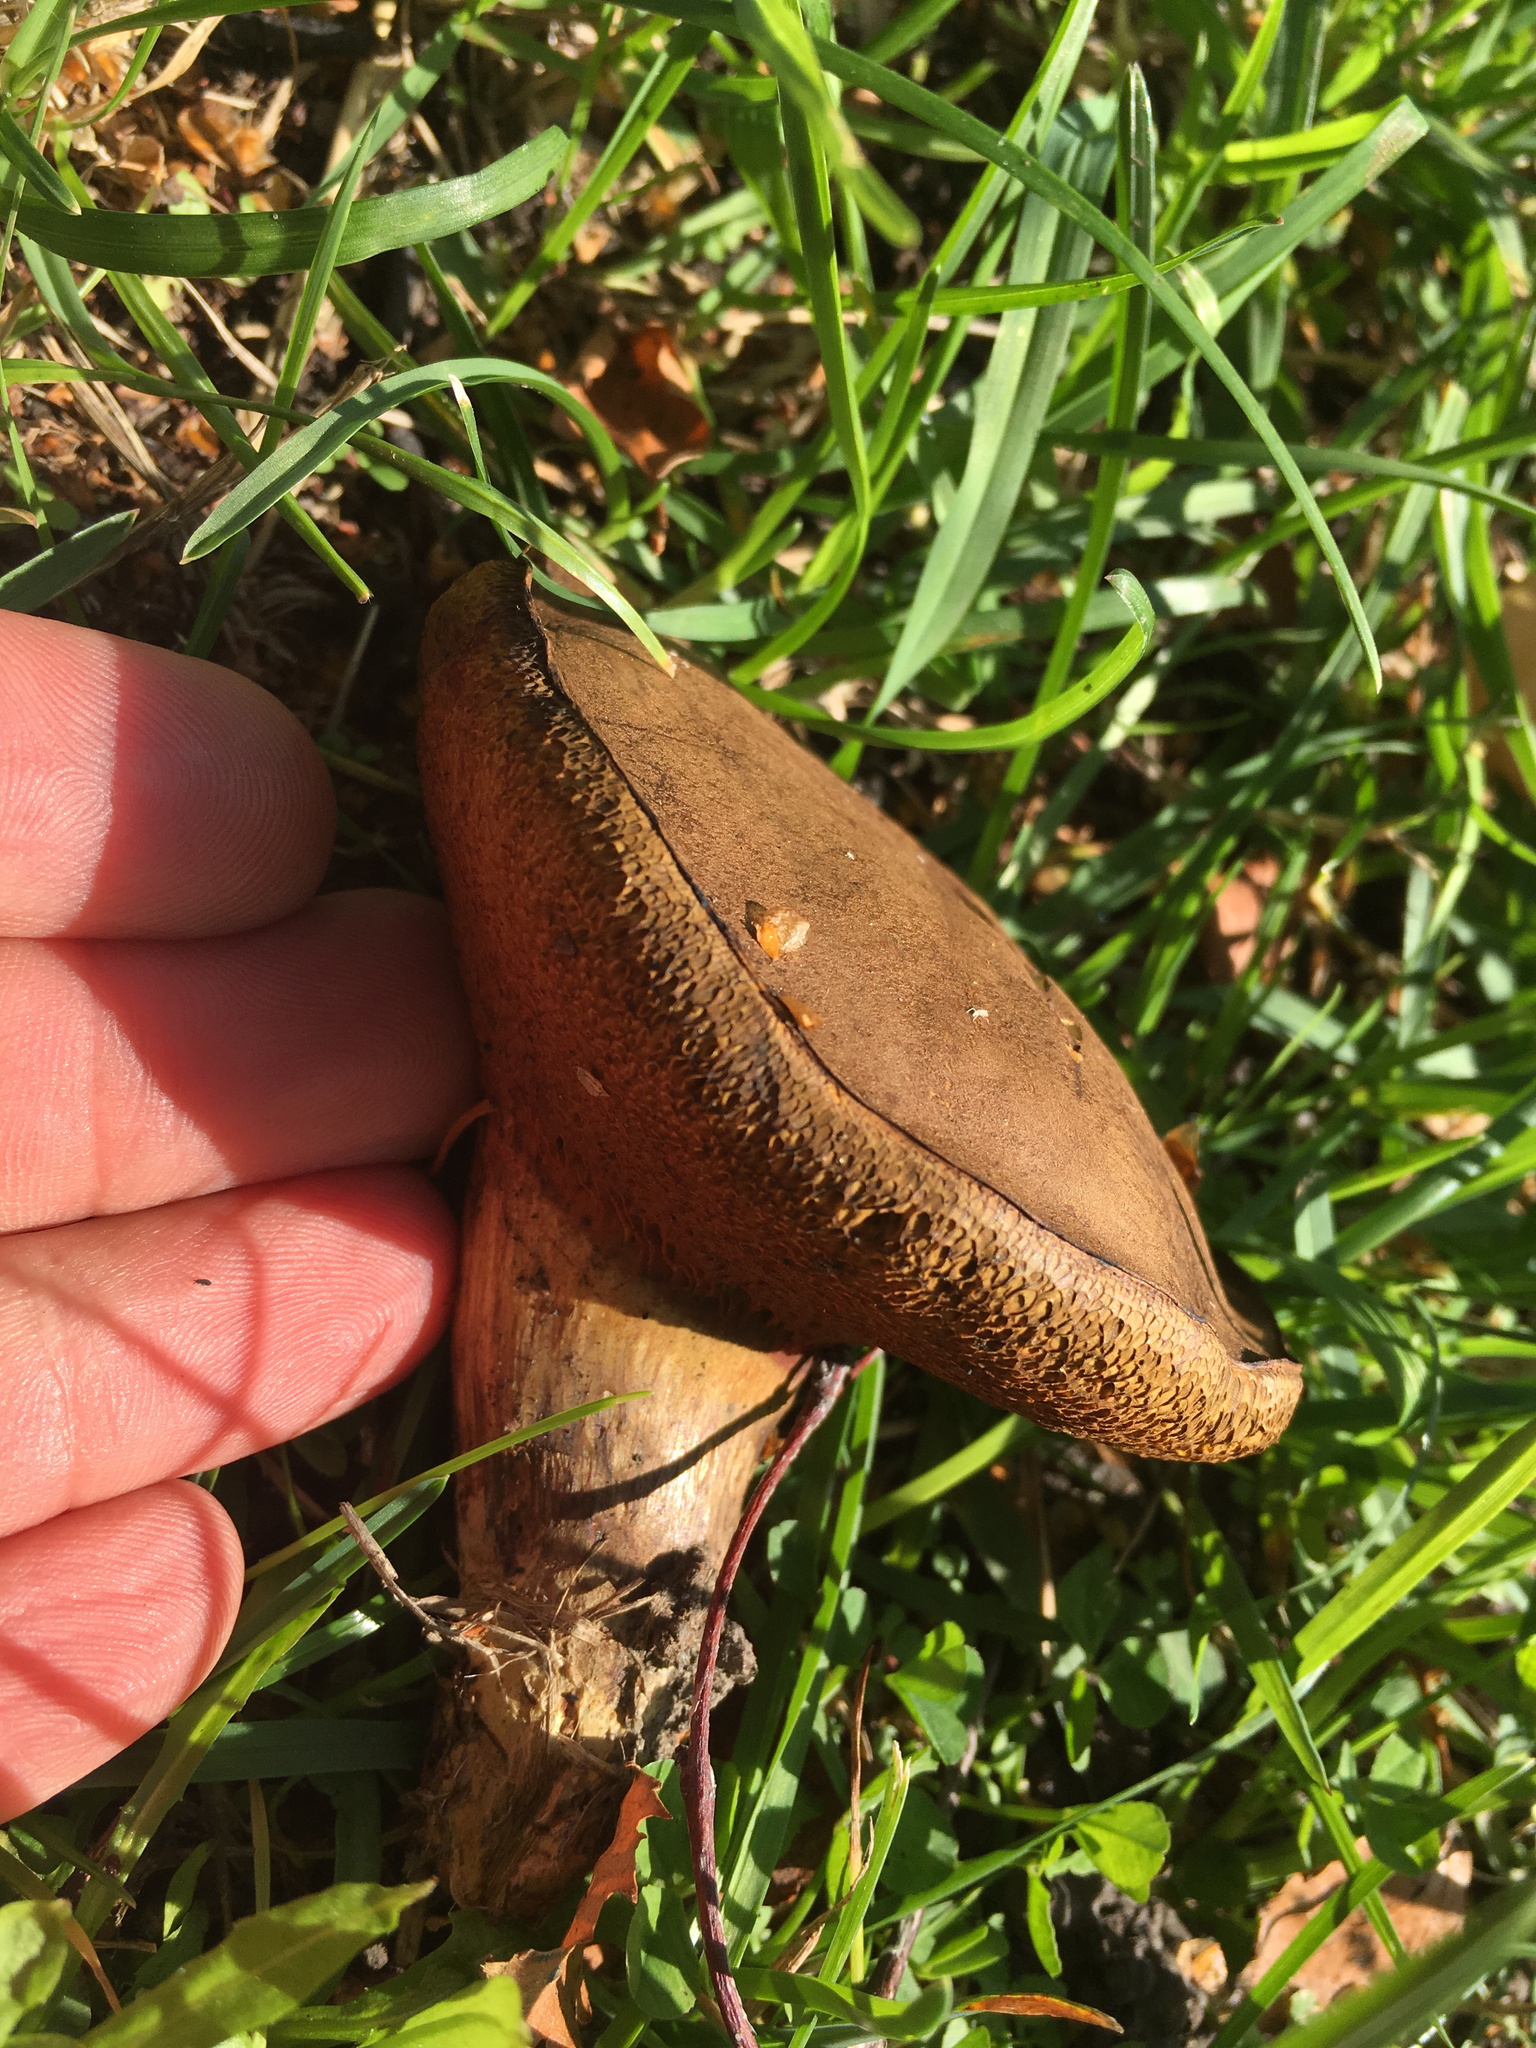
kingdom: Fungi
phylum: Basidiomycota
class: Agaricomycetes
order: Boletales
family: Boletaceae
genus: Leccinum
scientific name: Leccinum scabrum
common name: Blushing bolete
